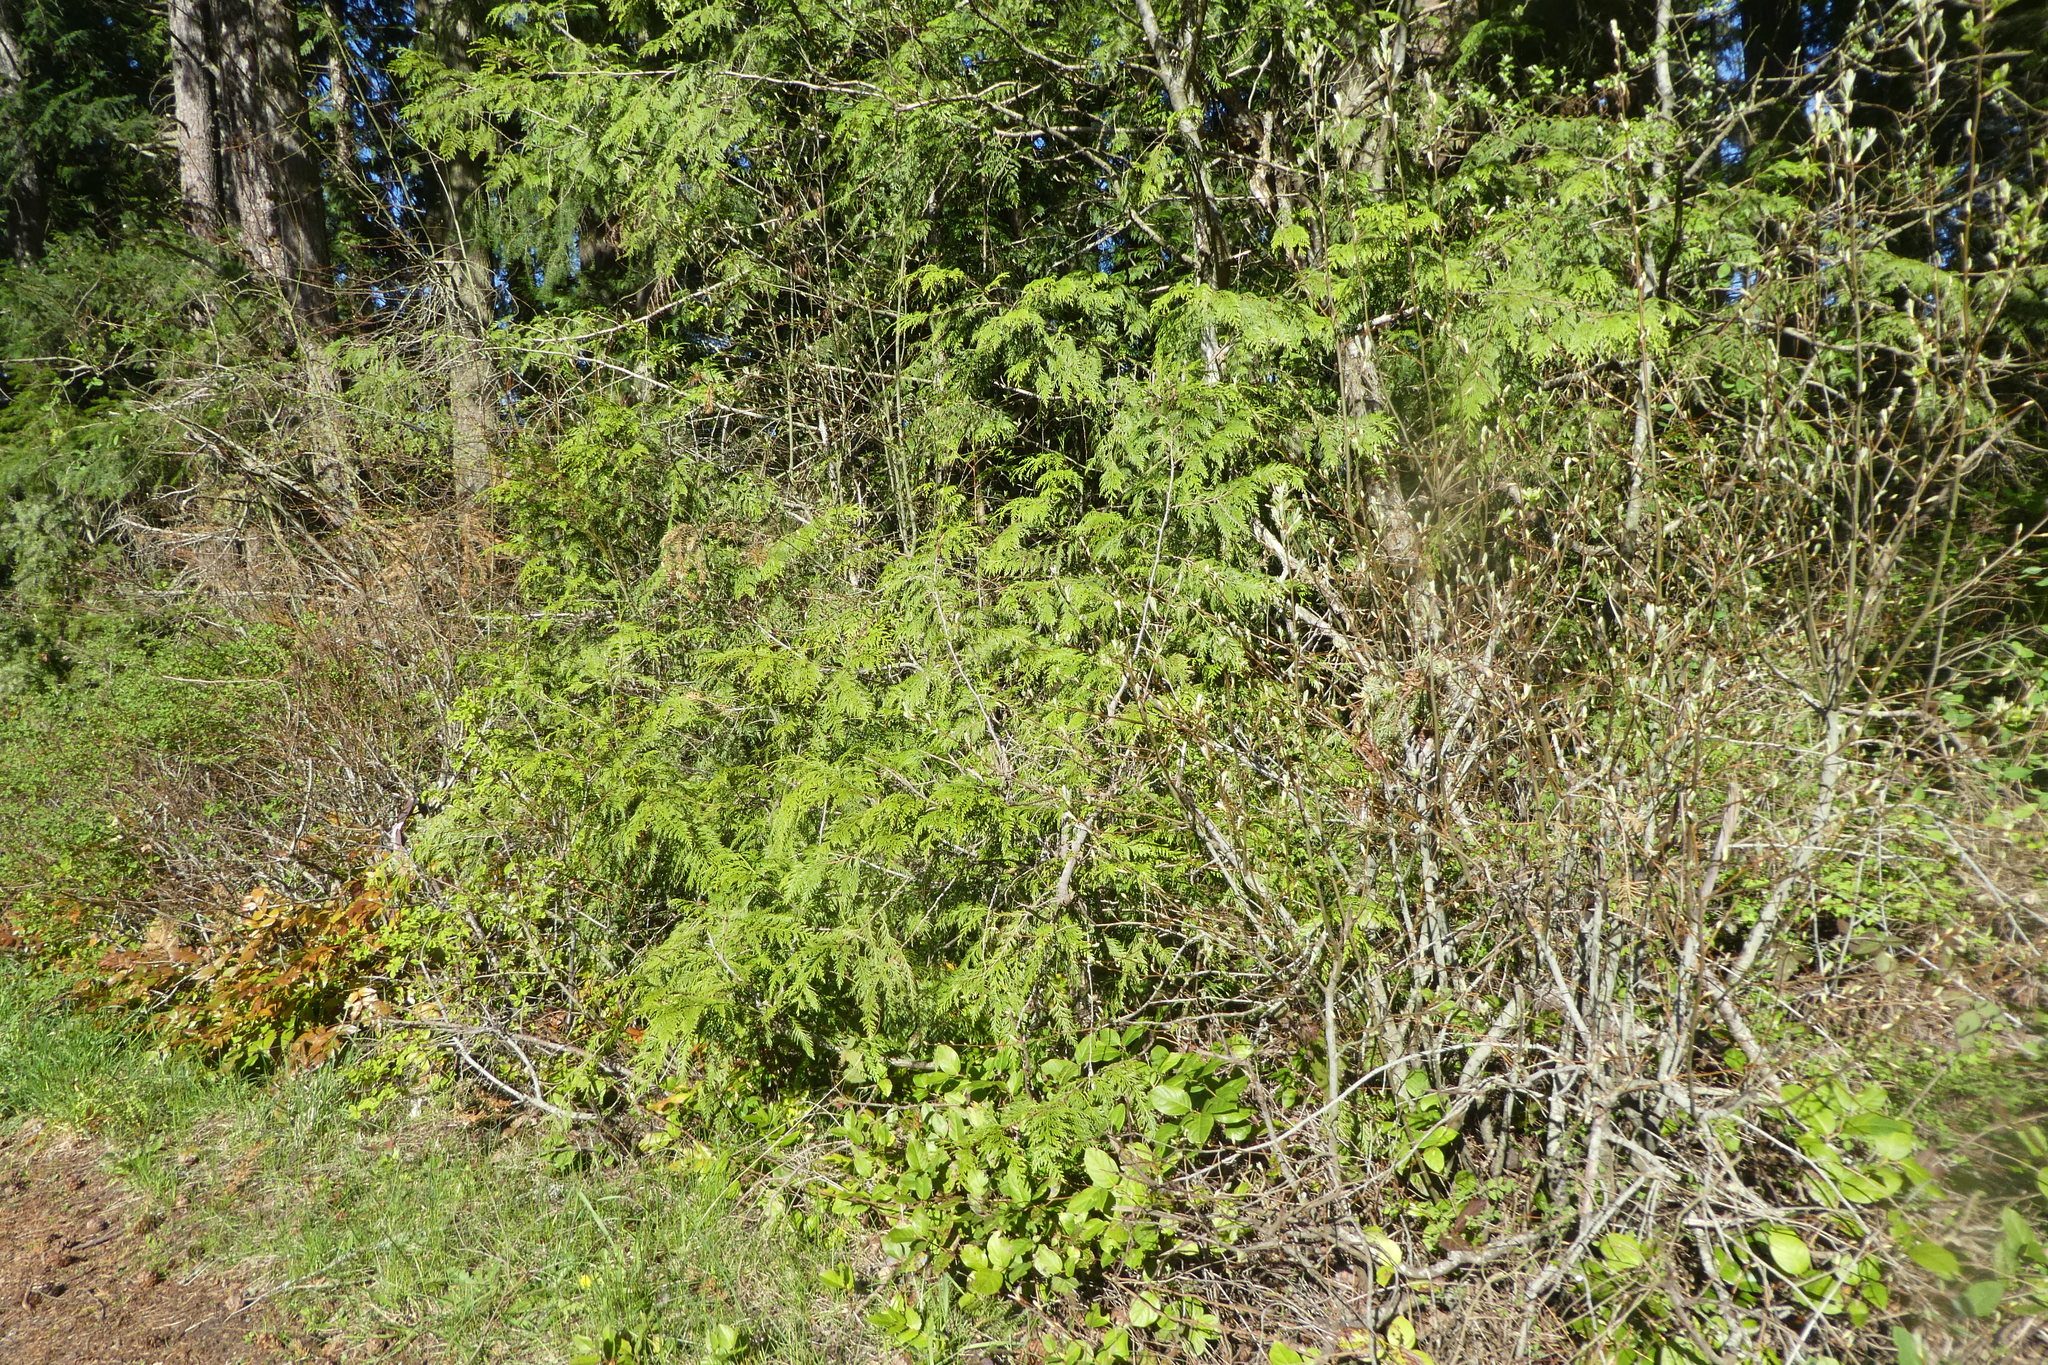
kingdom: Plantae
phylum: Tracheophyta
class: Pinopsida
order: Pinales
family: Cupressaceae
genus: Thuja
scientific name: Thuja plicata
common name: Western red-cedar
